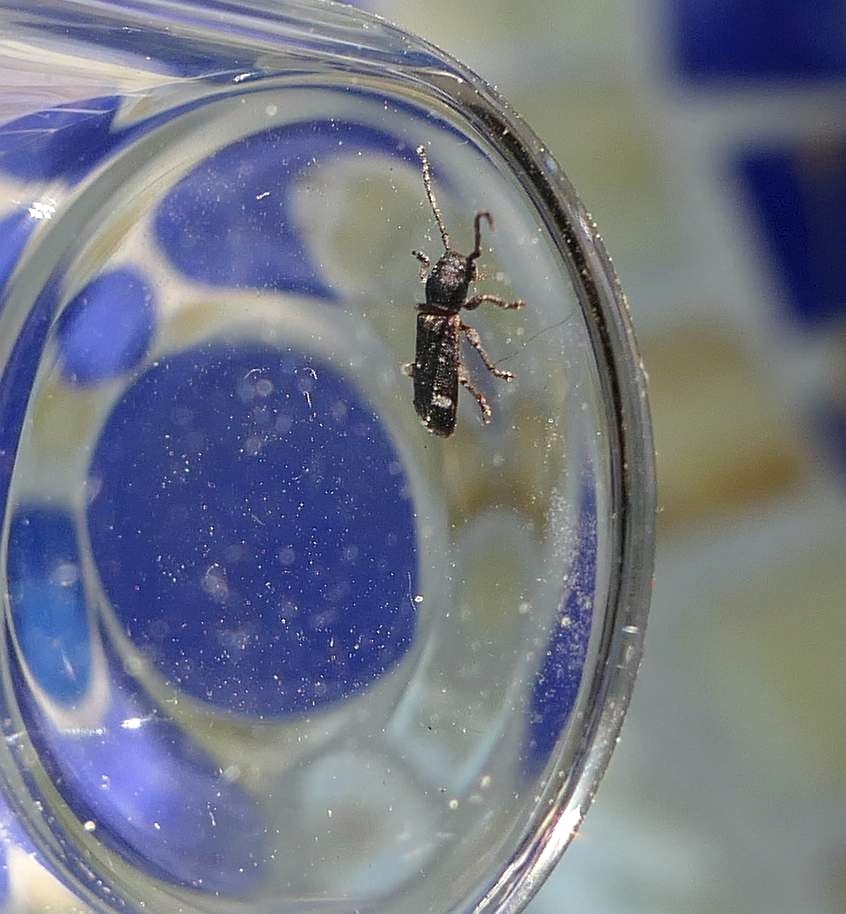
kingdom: Animalia
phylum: Arthropoda
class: Insecta
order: Coleoptera
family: Cerambycidae
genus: Psenocerus
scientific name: Psenocerus supernotatus
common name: Currant-tip borer
